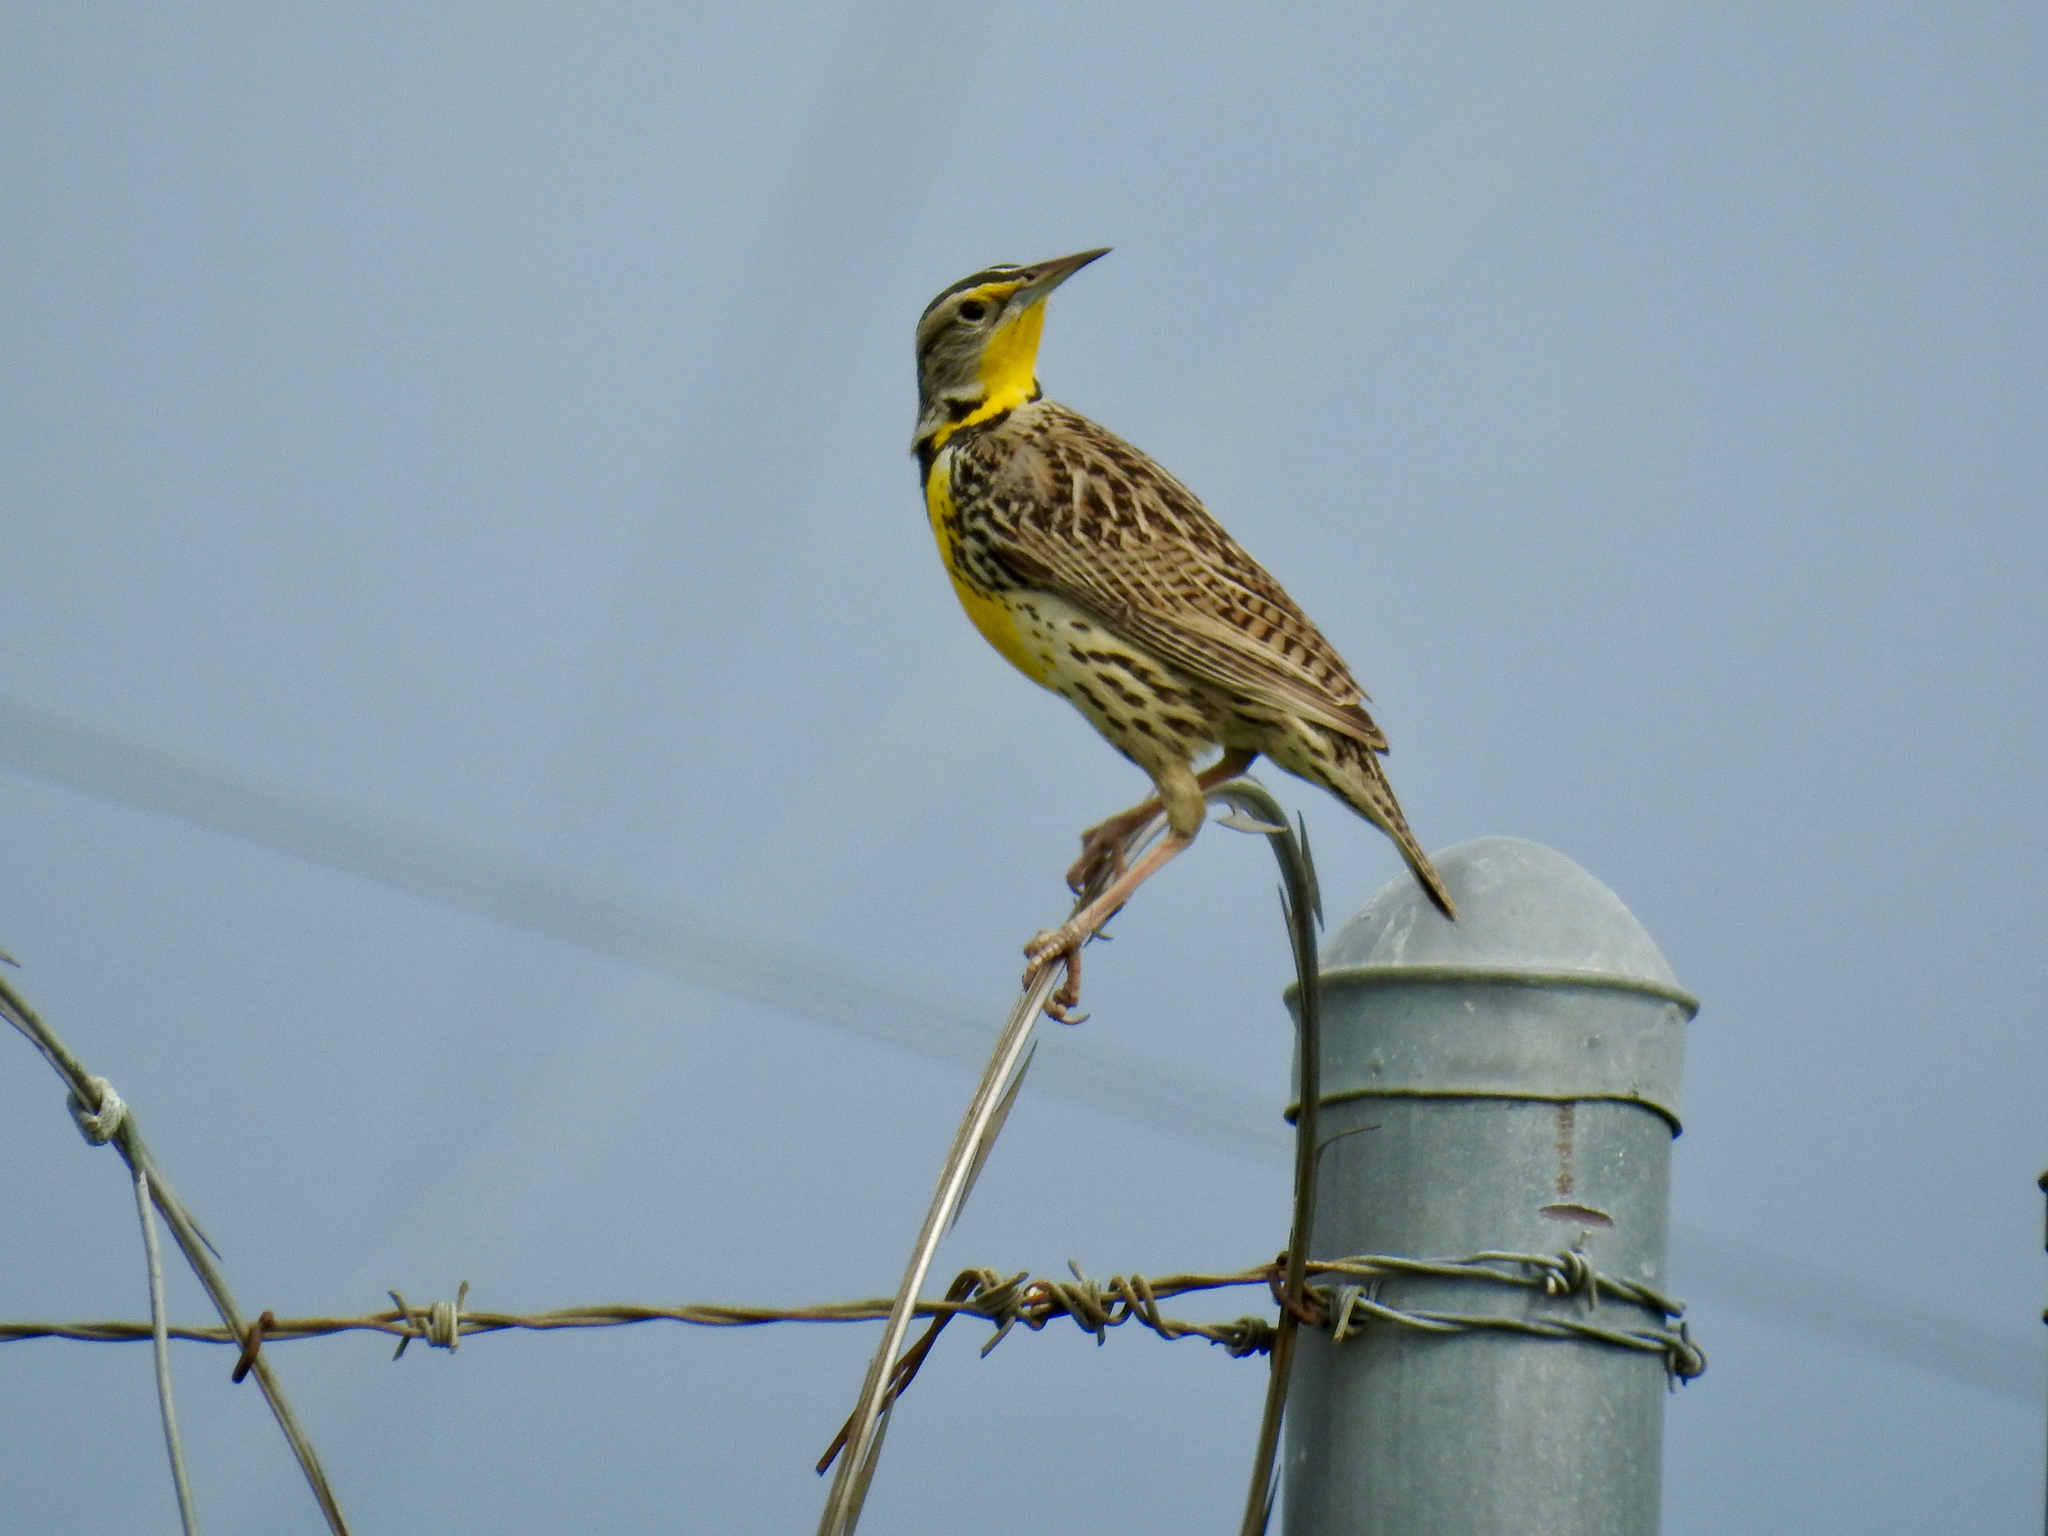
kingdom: Animalia
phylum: Chordata
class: Aves
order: Passeriformes
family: Icteridae
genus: Sturnella
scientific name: Sturnella neglecta
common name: Western meadowlark
